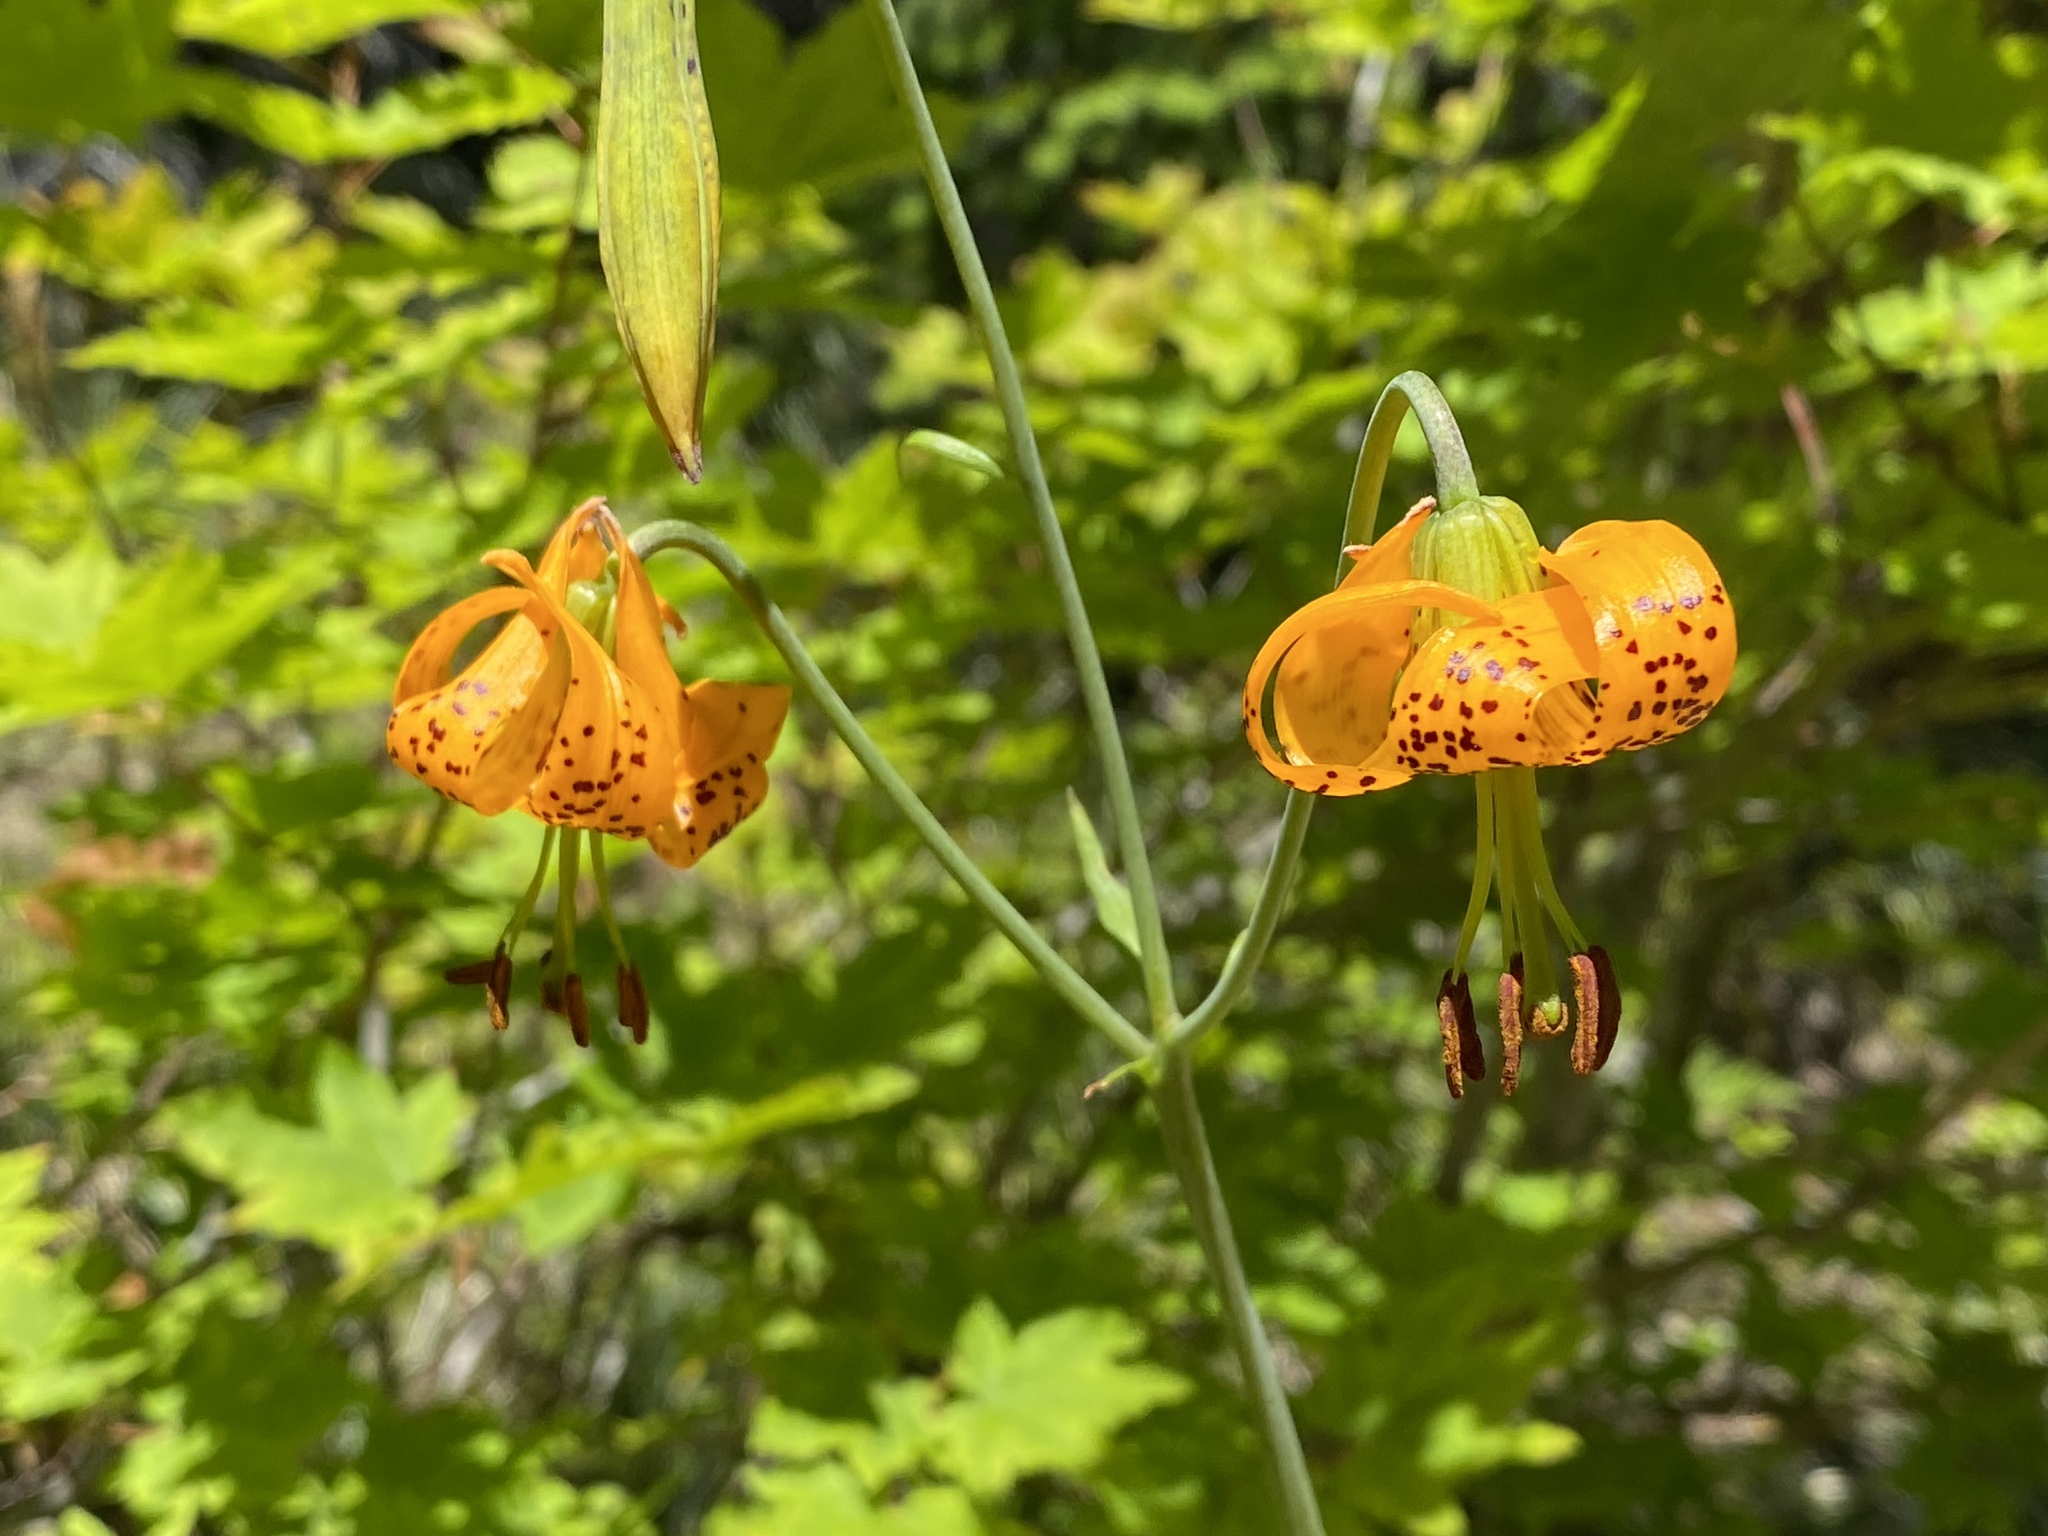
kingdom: Plantae
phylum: Tracheophyta
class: Liliopsida
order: Liliales
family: Liliaceae
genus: Lilium
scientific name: Lilium columbianum
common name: Columbia lily
